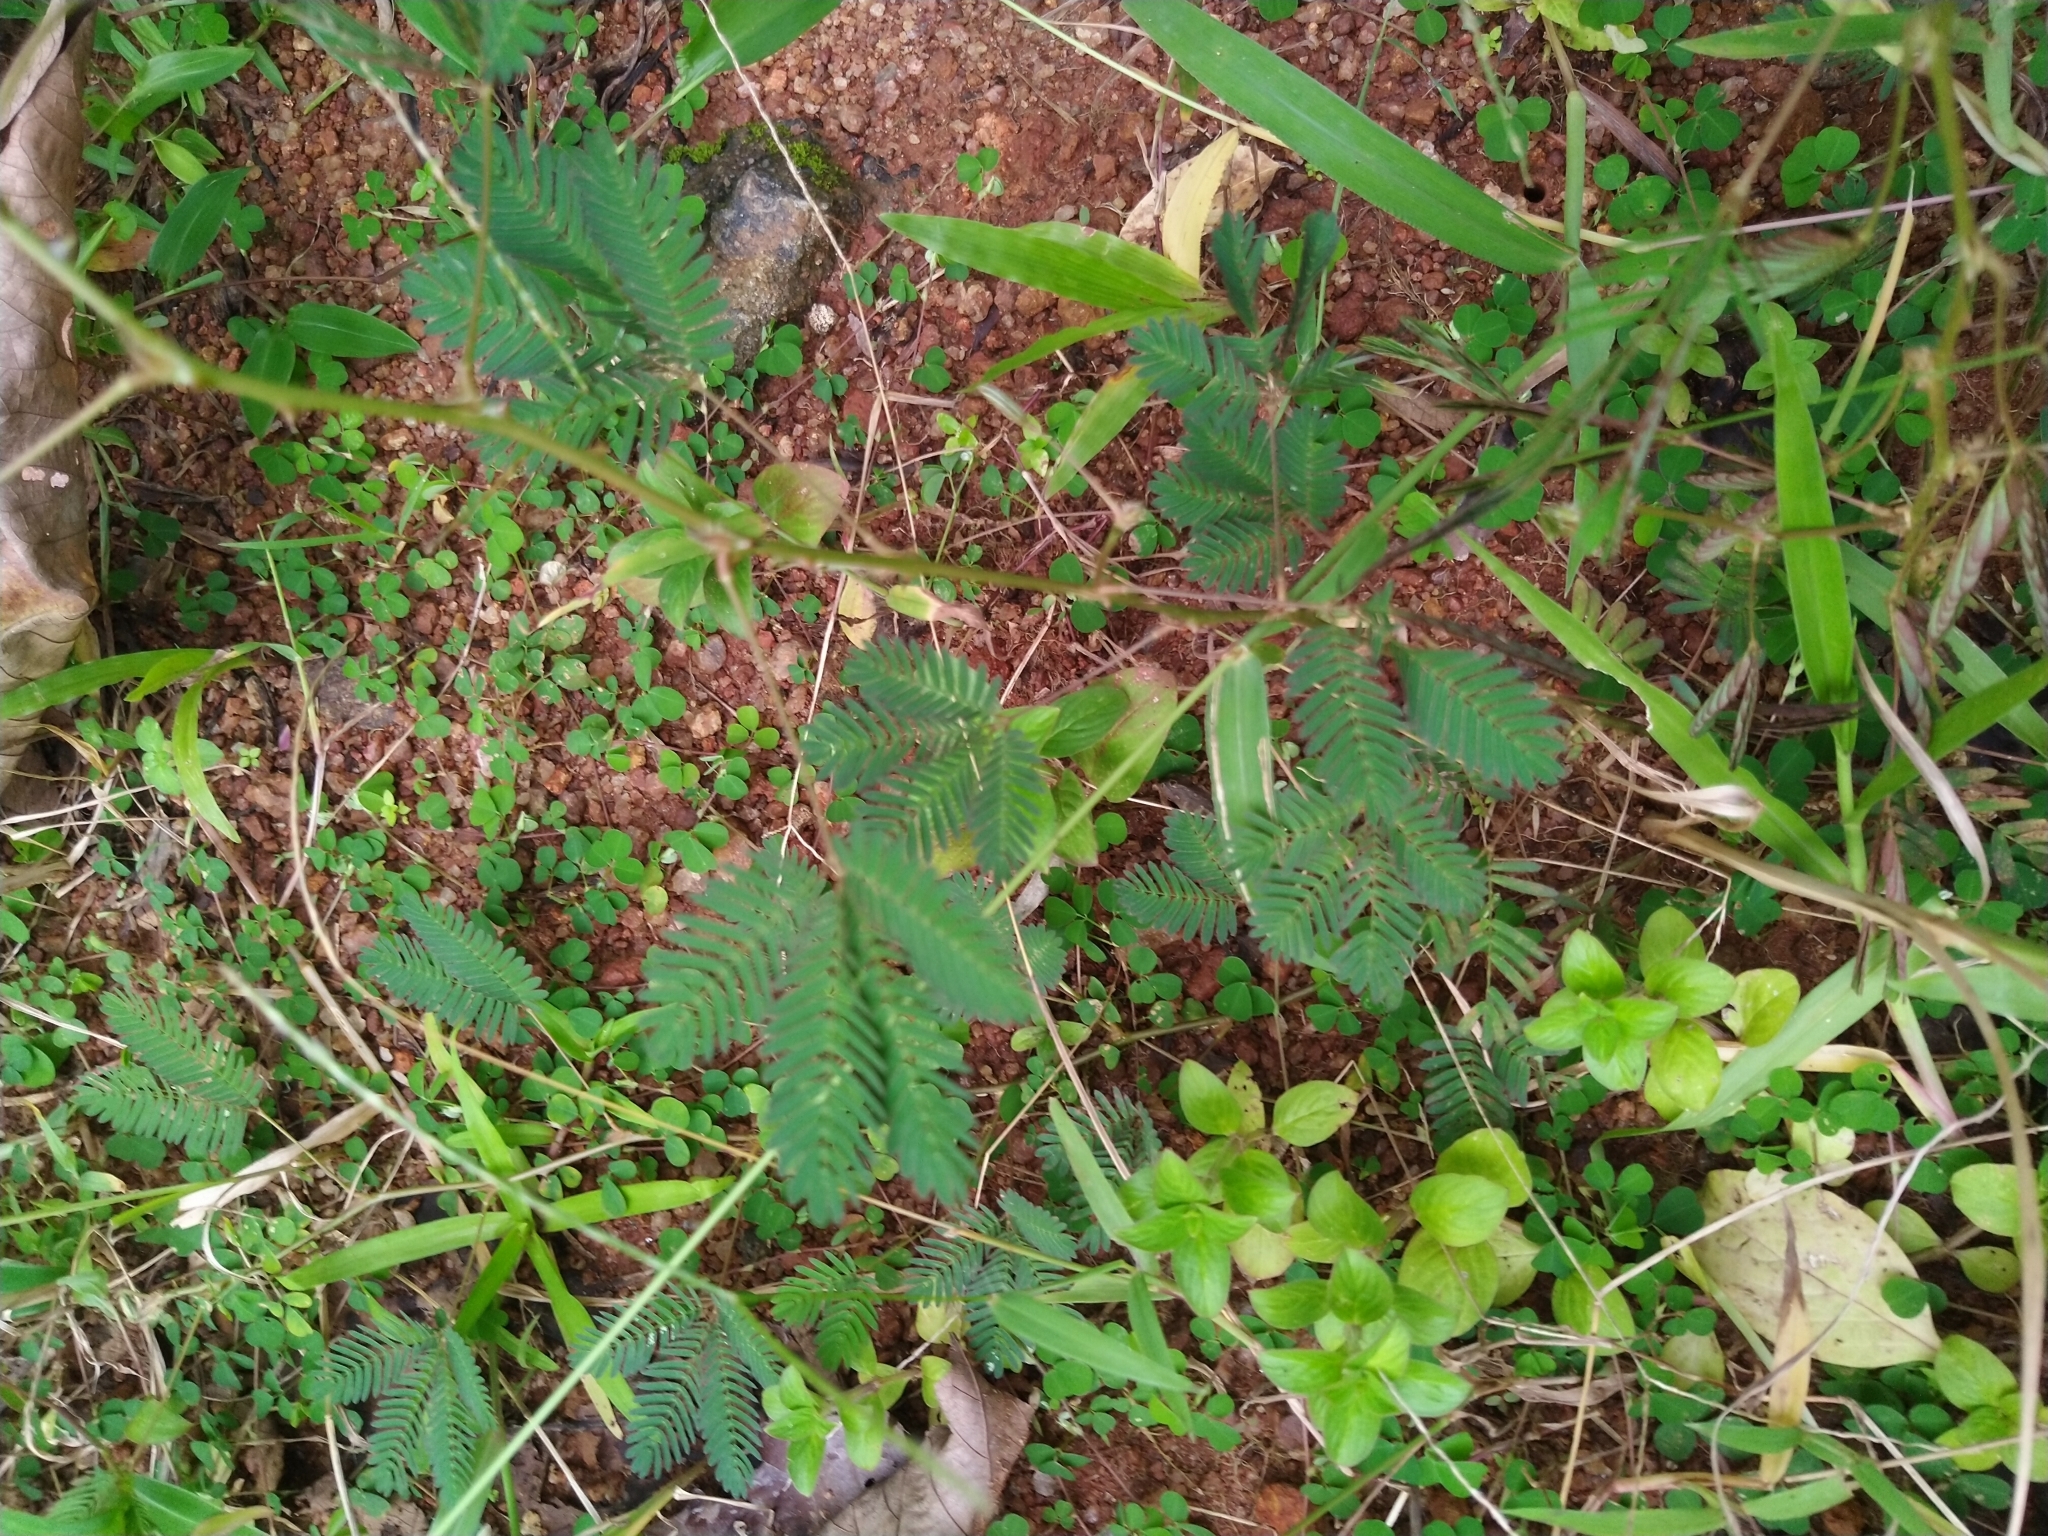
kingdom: Plantae
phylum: Tracheophyta
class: Magnoliopsida
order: Fabales
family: Fabaceae
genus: Mimosa
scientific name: Mimosa pudica
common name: Sensitive plant
